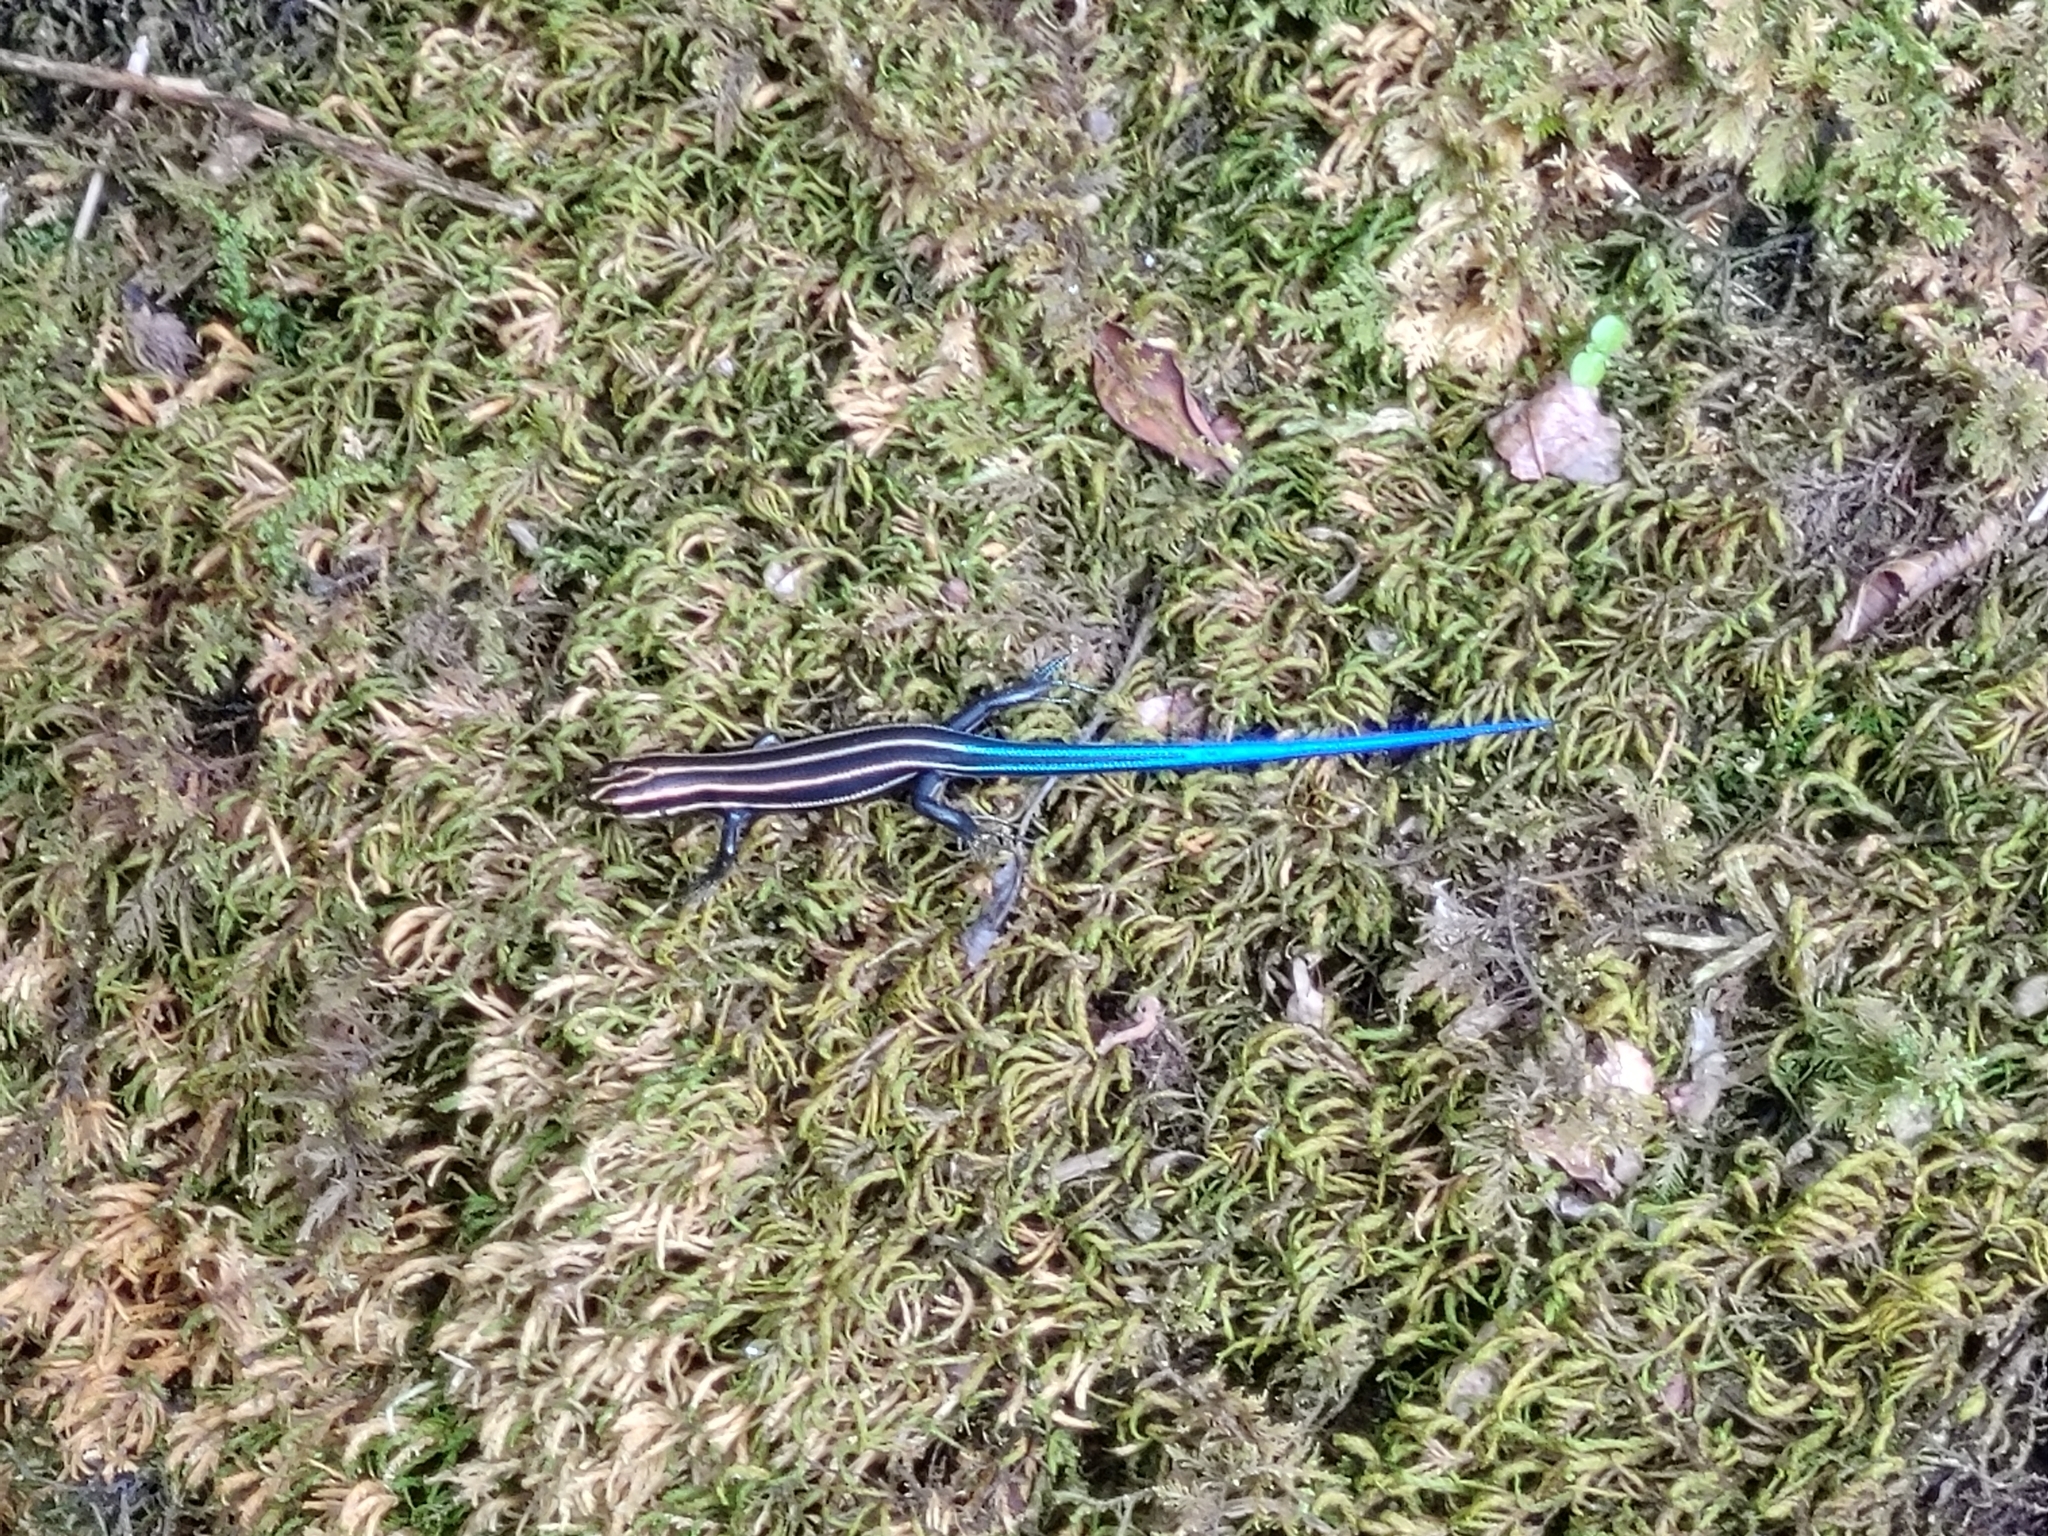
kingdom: Animalia
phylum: Chordata
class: Squamata
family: Scincidae
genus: Plestiodon
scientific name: Plestiodon fasciatus
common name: Five-lined skink
